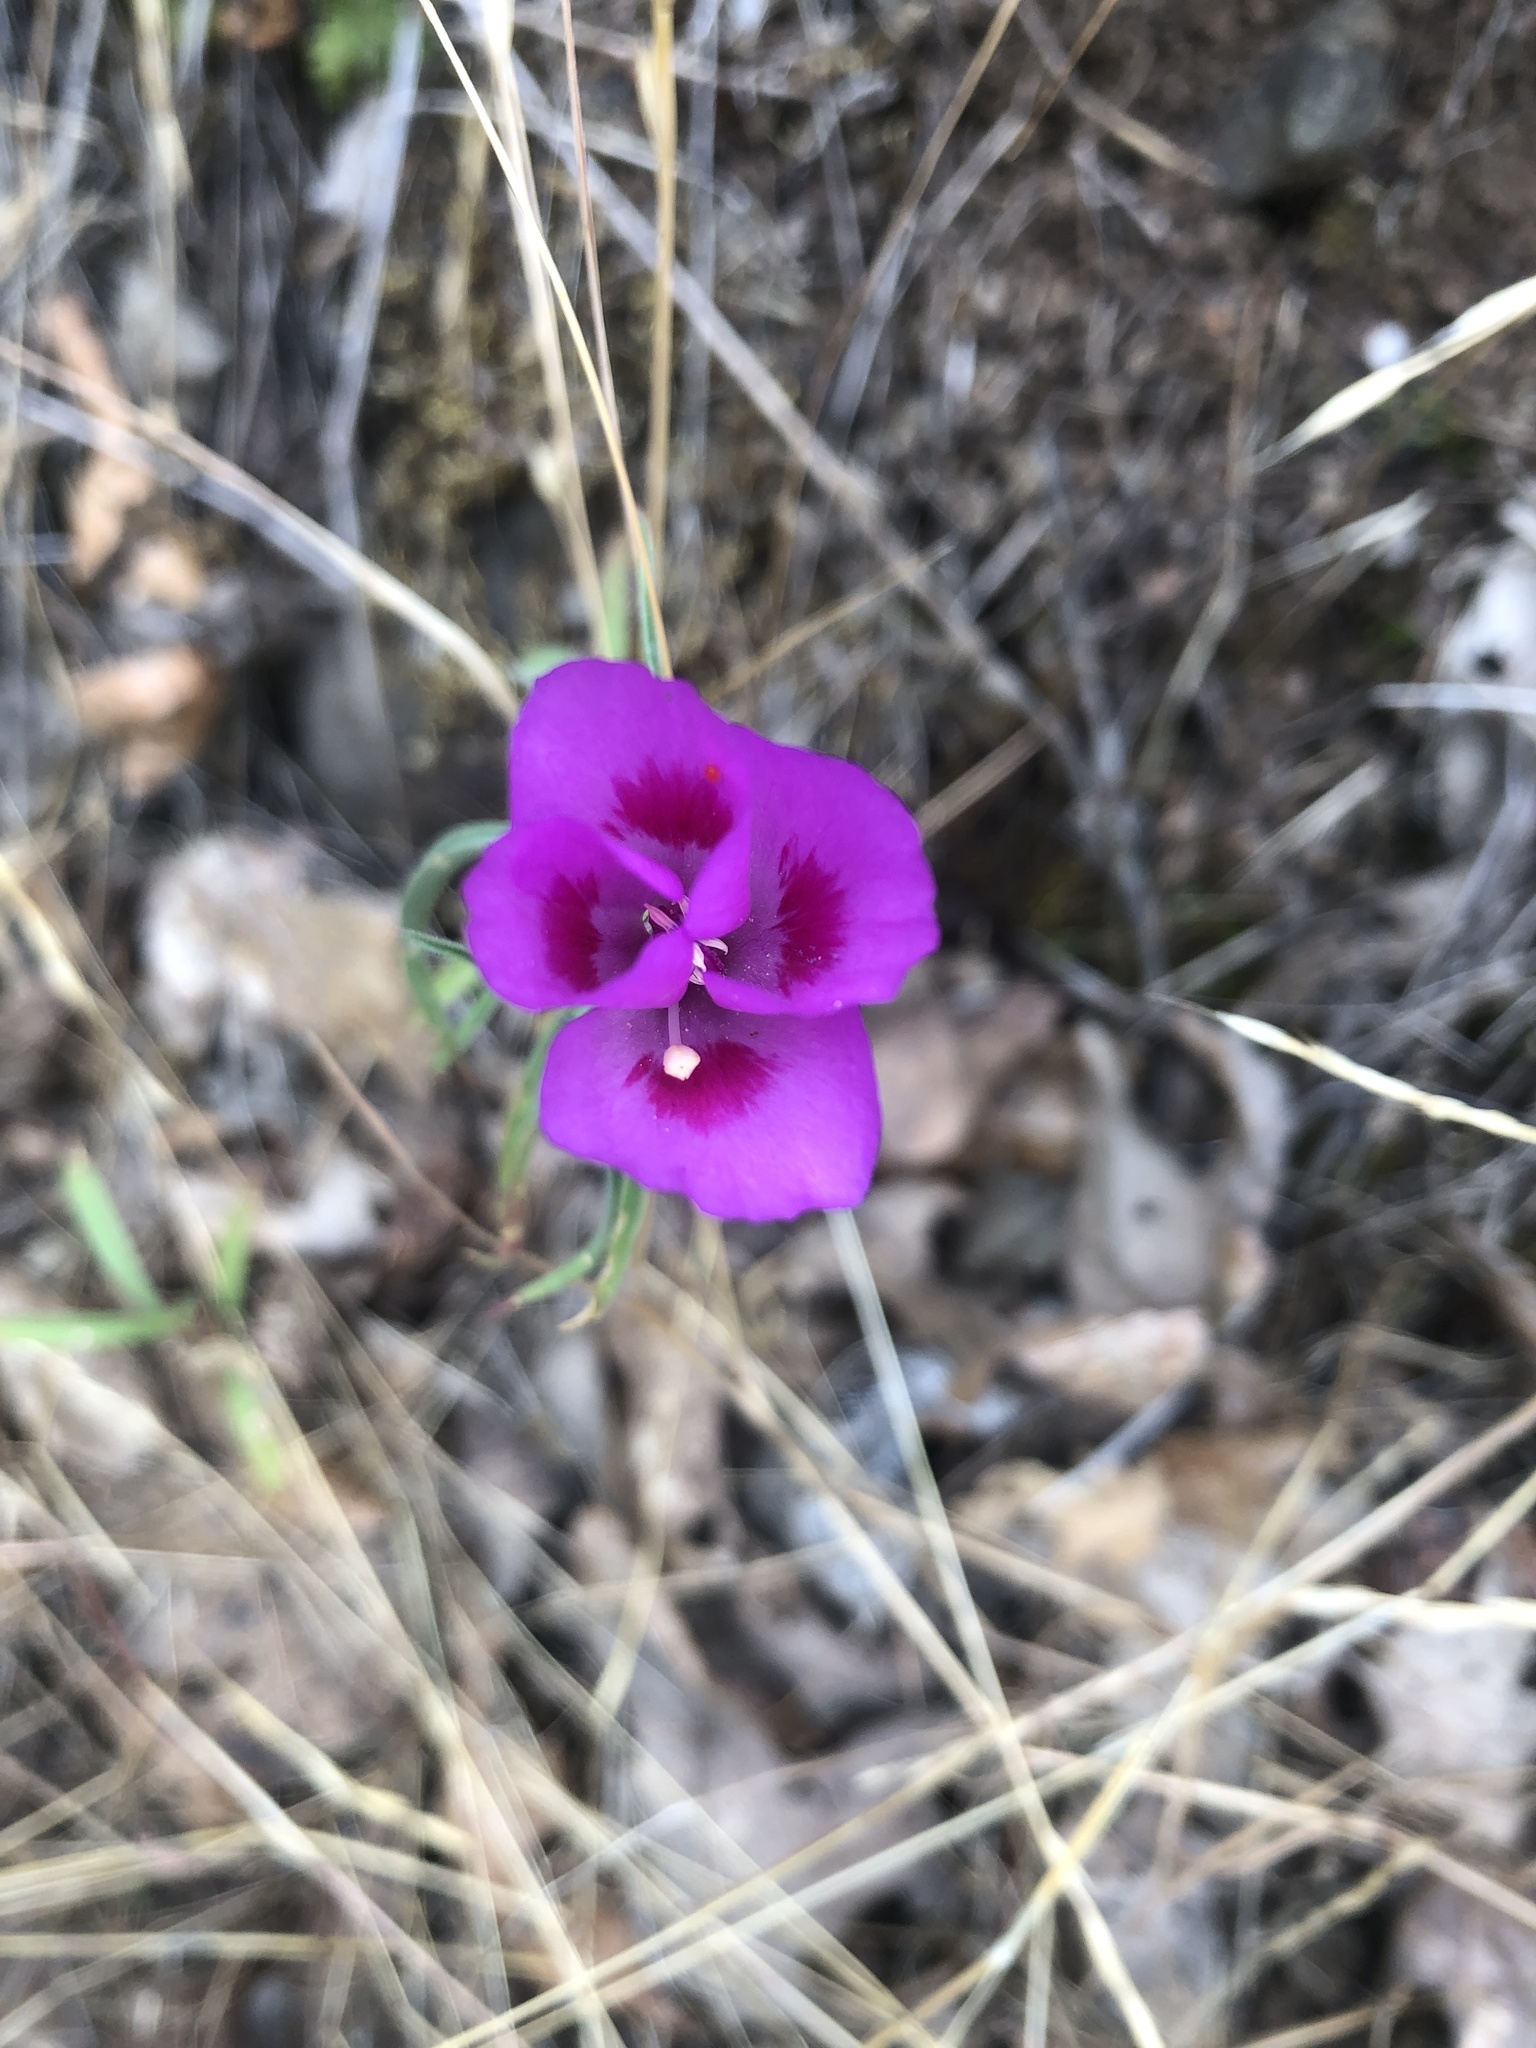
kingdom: Plantae
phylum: Tracheophyta
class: Magnoliopsida
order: Myrtales
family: Onagraceae
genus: Clarkia
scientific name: Clarkia amoena
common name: Godetia
